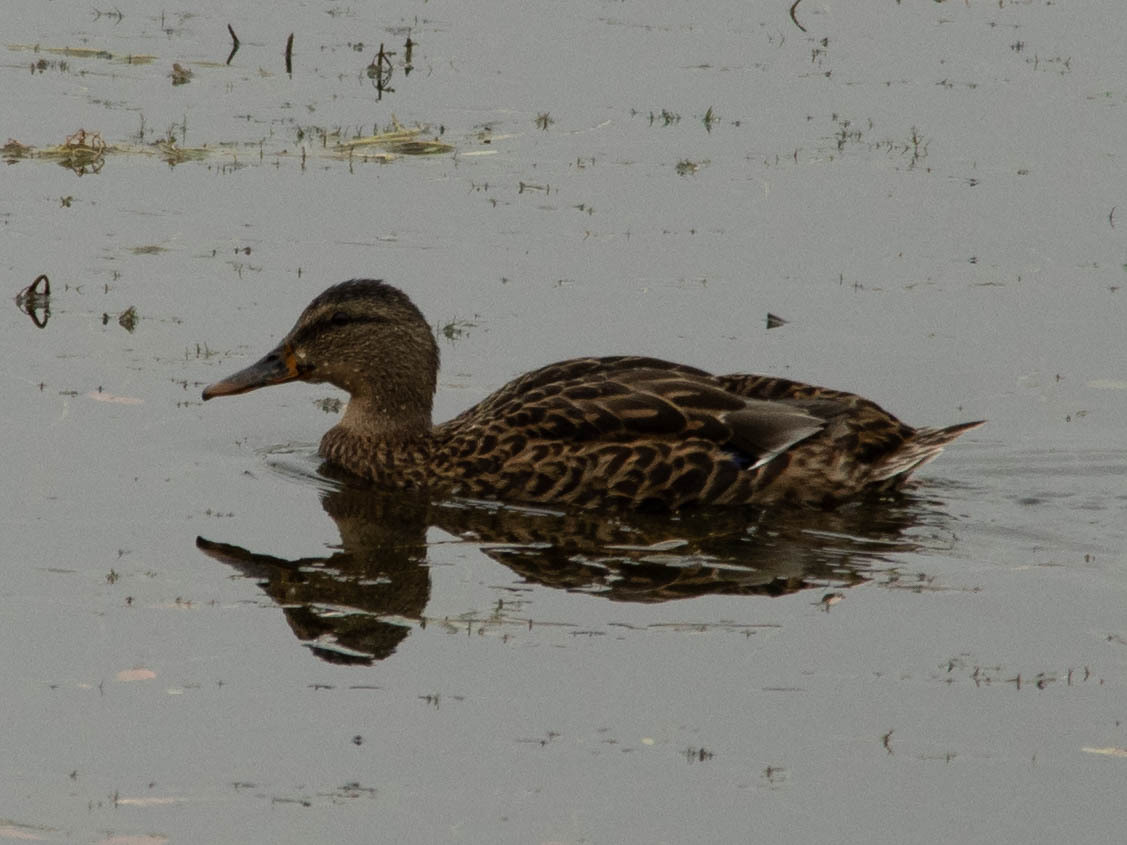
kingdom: Animalia
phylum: Chordata
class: Aves
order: Anseriformes
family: Anatidae
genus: Anas
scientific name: Anas platyrhynchos
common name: Mallard
